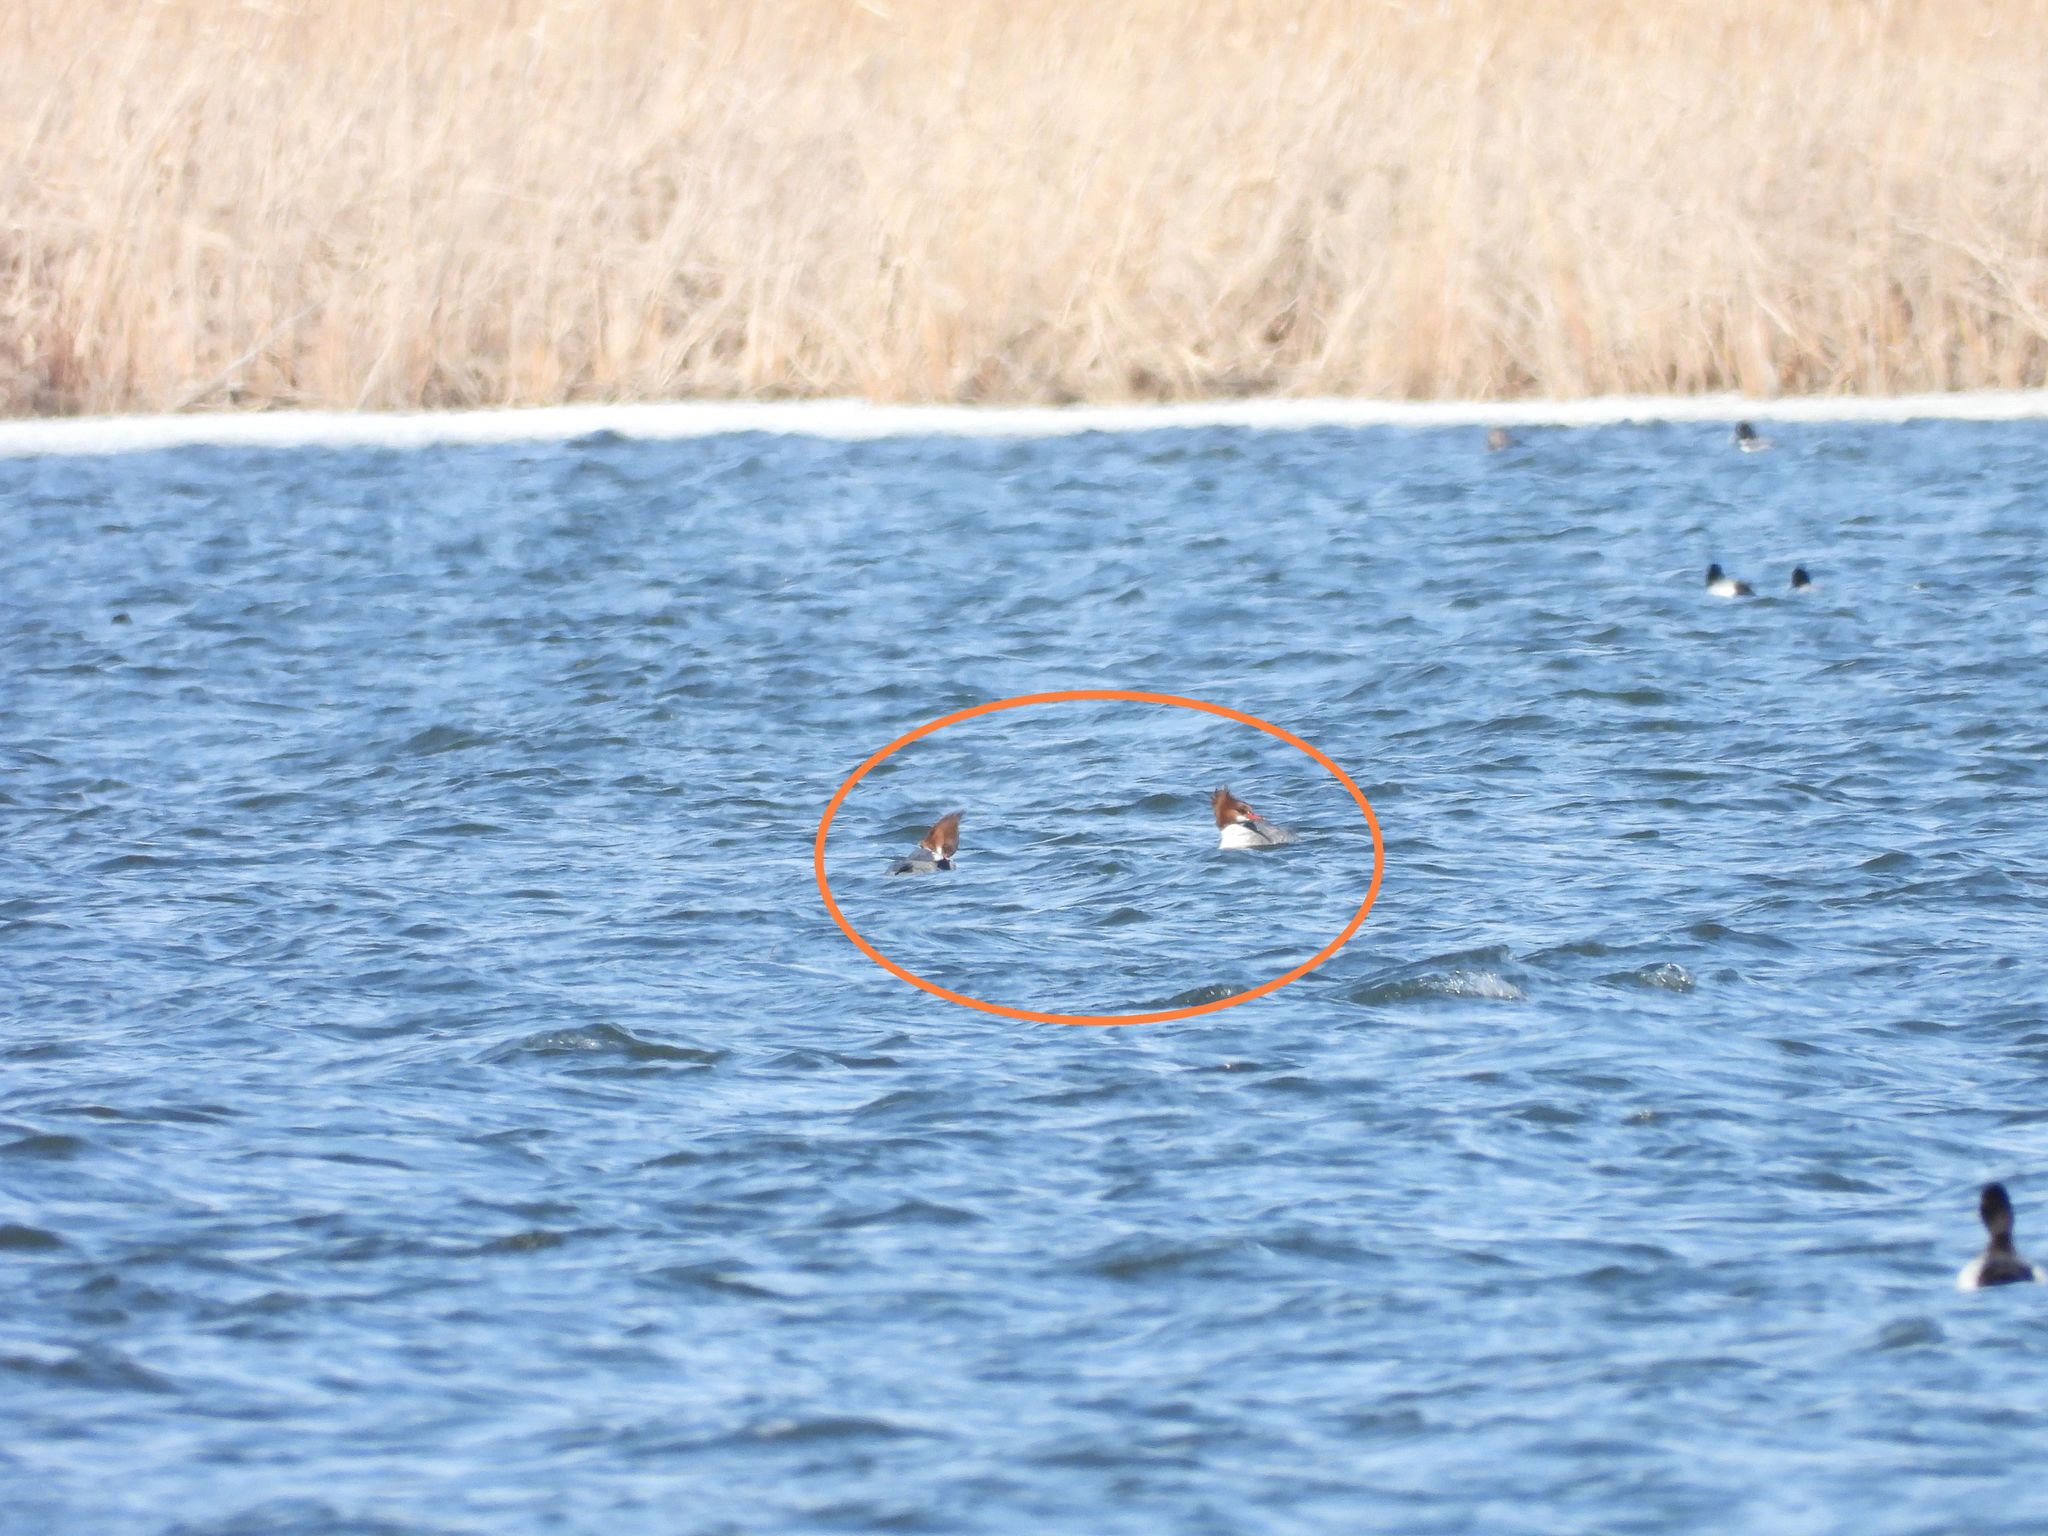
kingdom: Animalia
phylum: Chordata
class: Aves
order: Anseriformes
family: Anatidae
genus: Mergus
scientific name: Mergus merganser
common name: Common merganser
